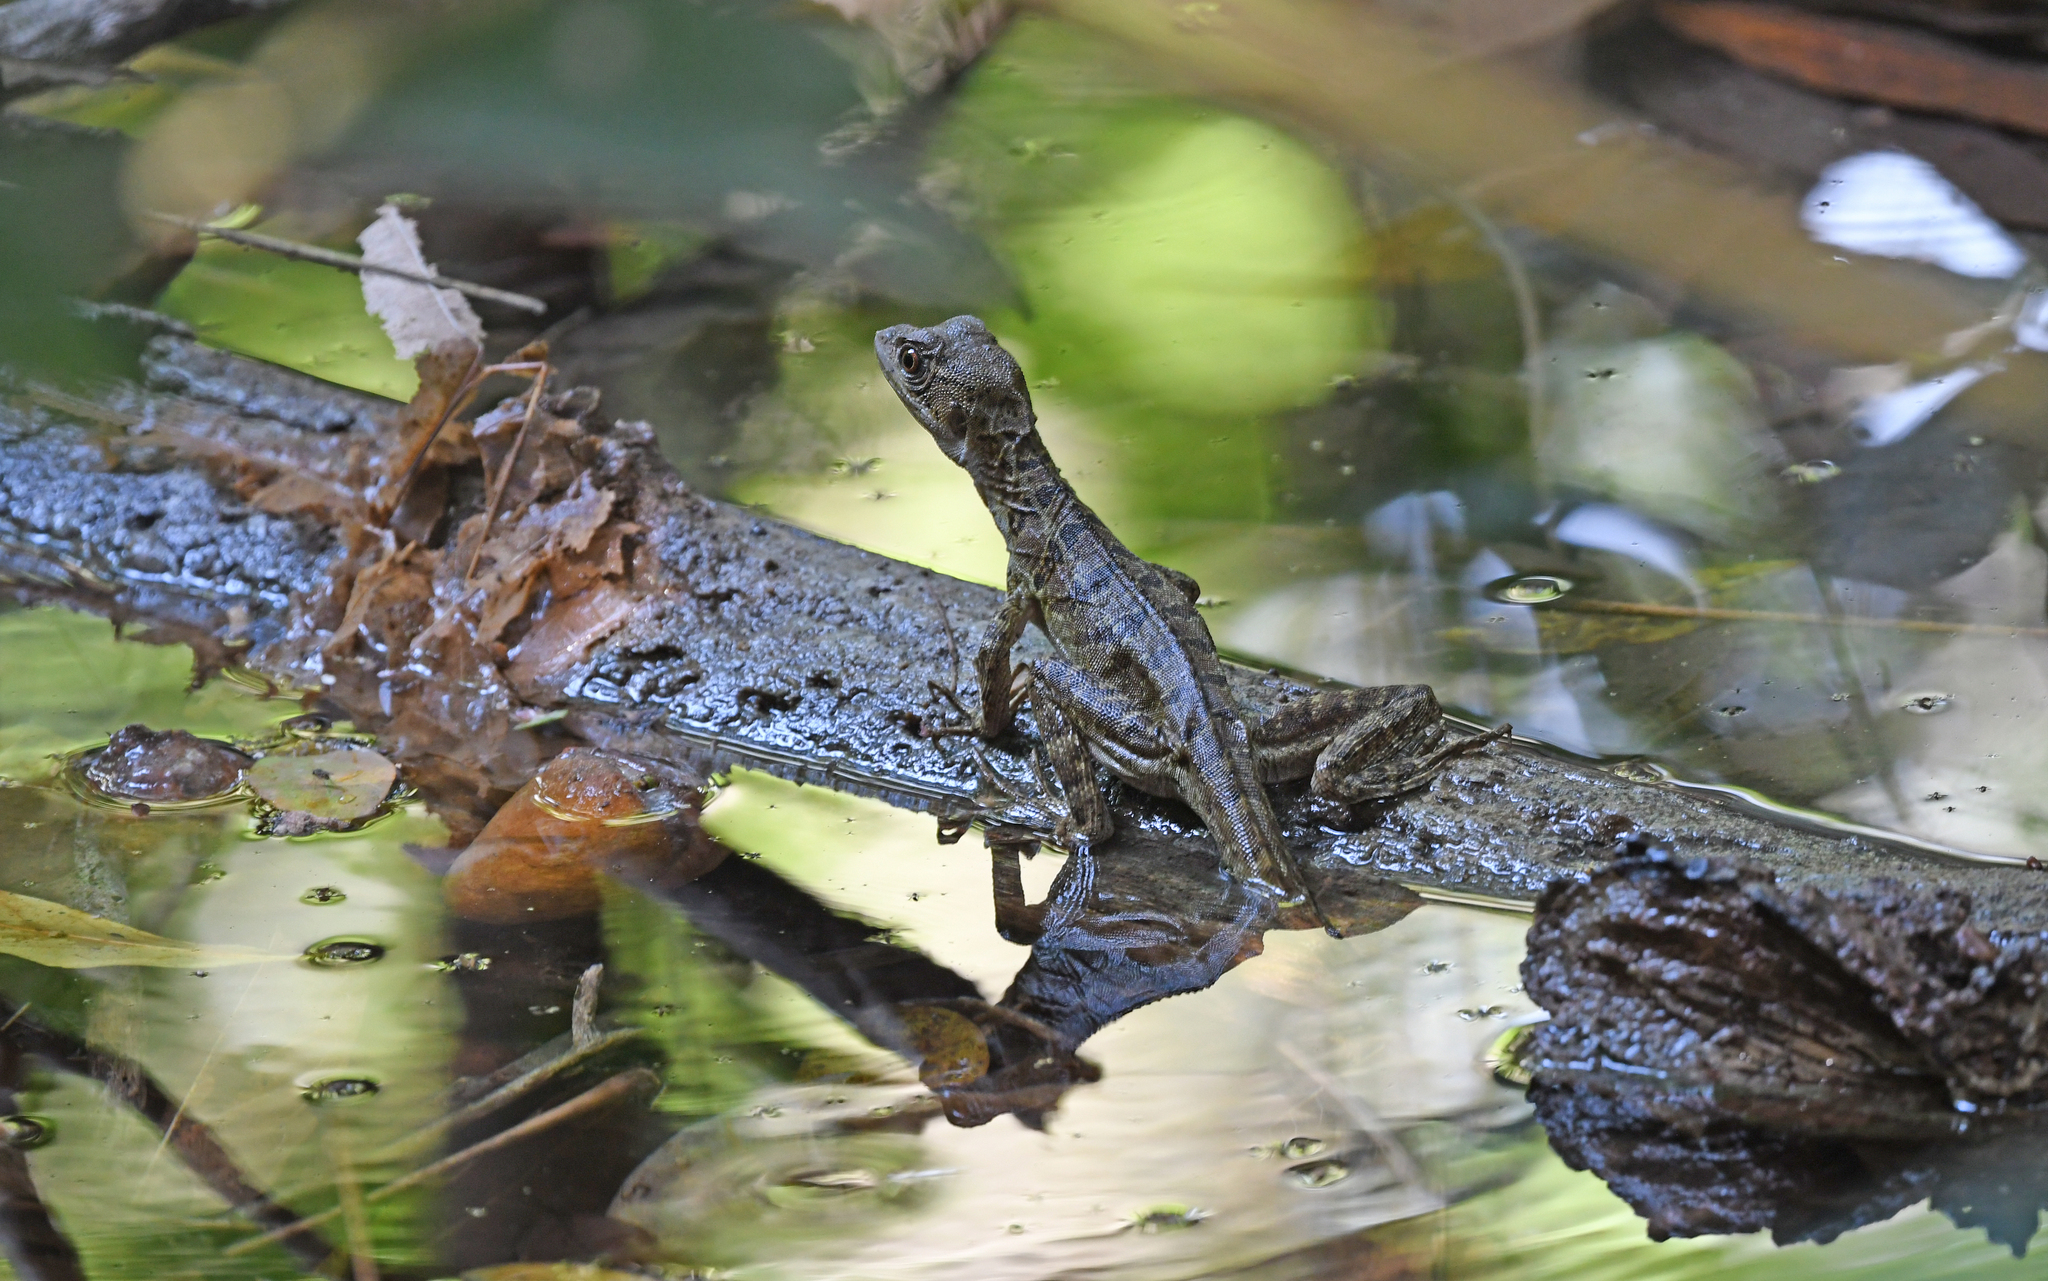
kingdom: Animalia
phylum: Chordata
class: Squamata
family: Corytophanidae
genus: Basiliscus
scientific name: Basiliscus basiliscus
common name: Common basilisk
